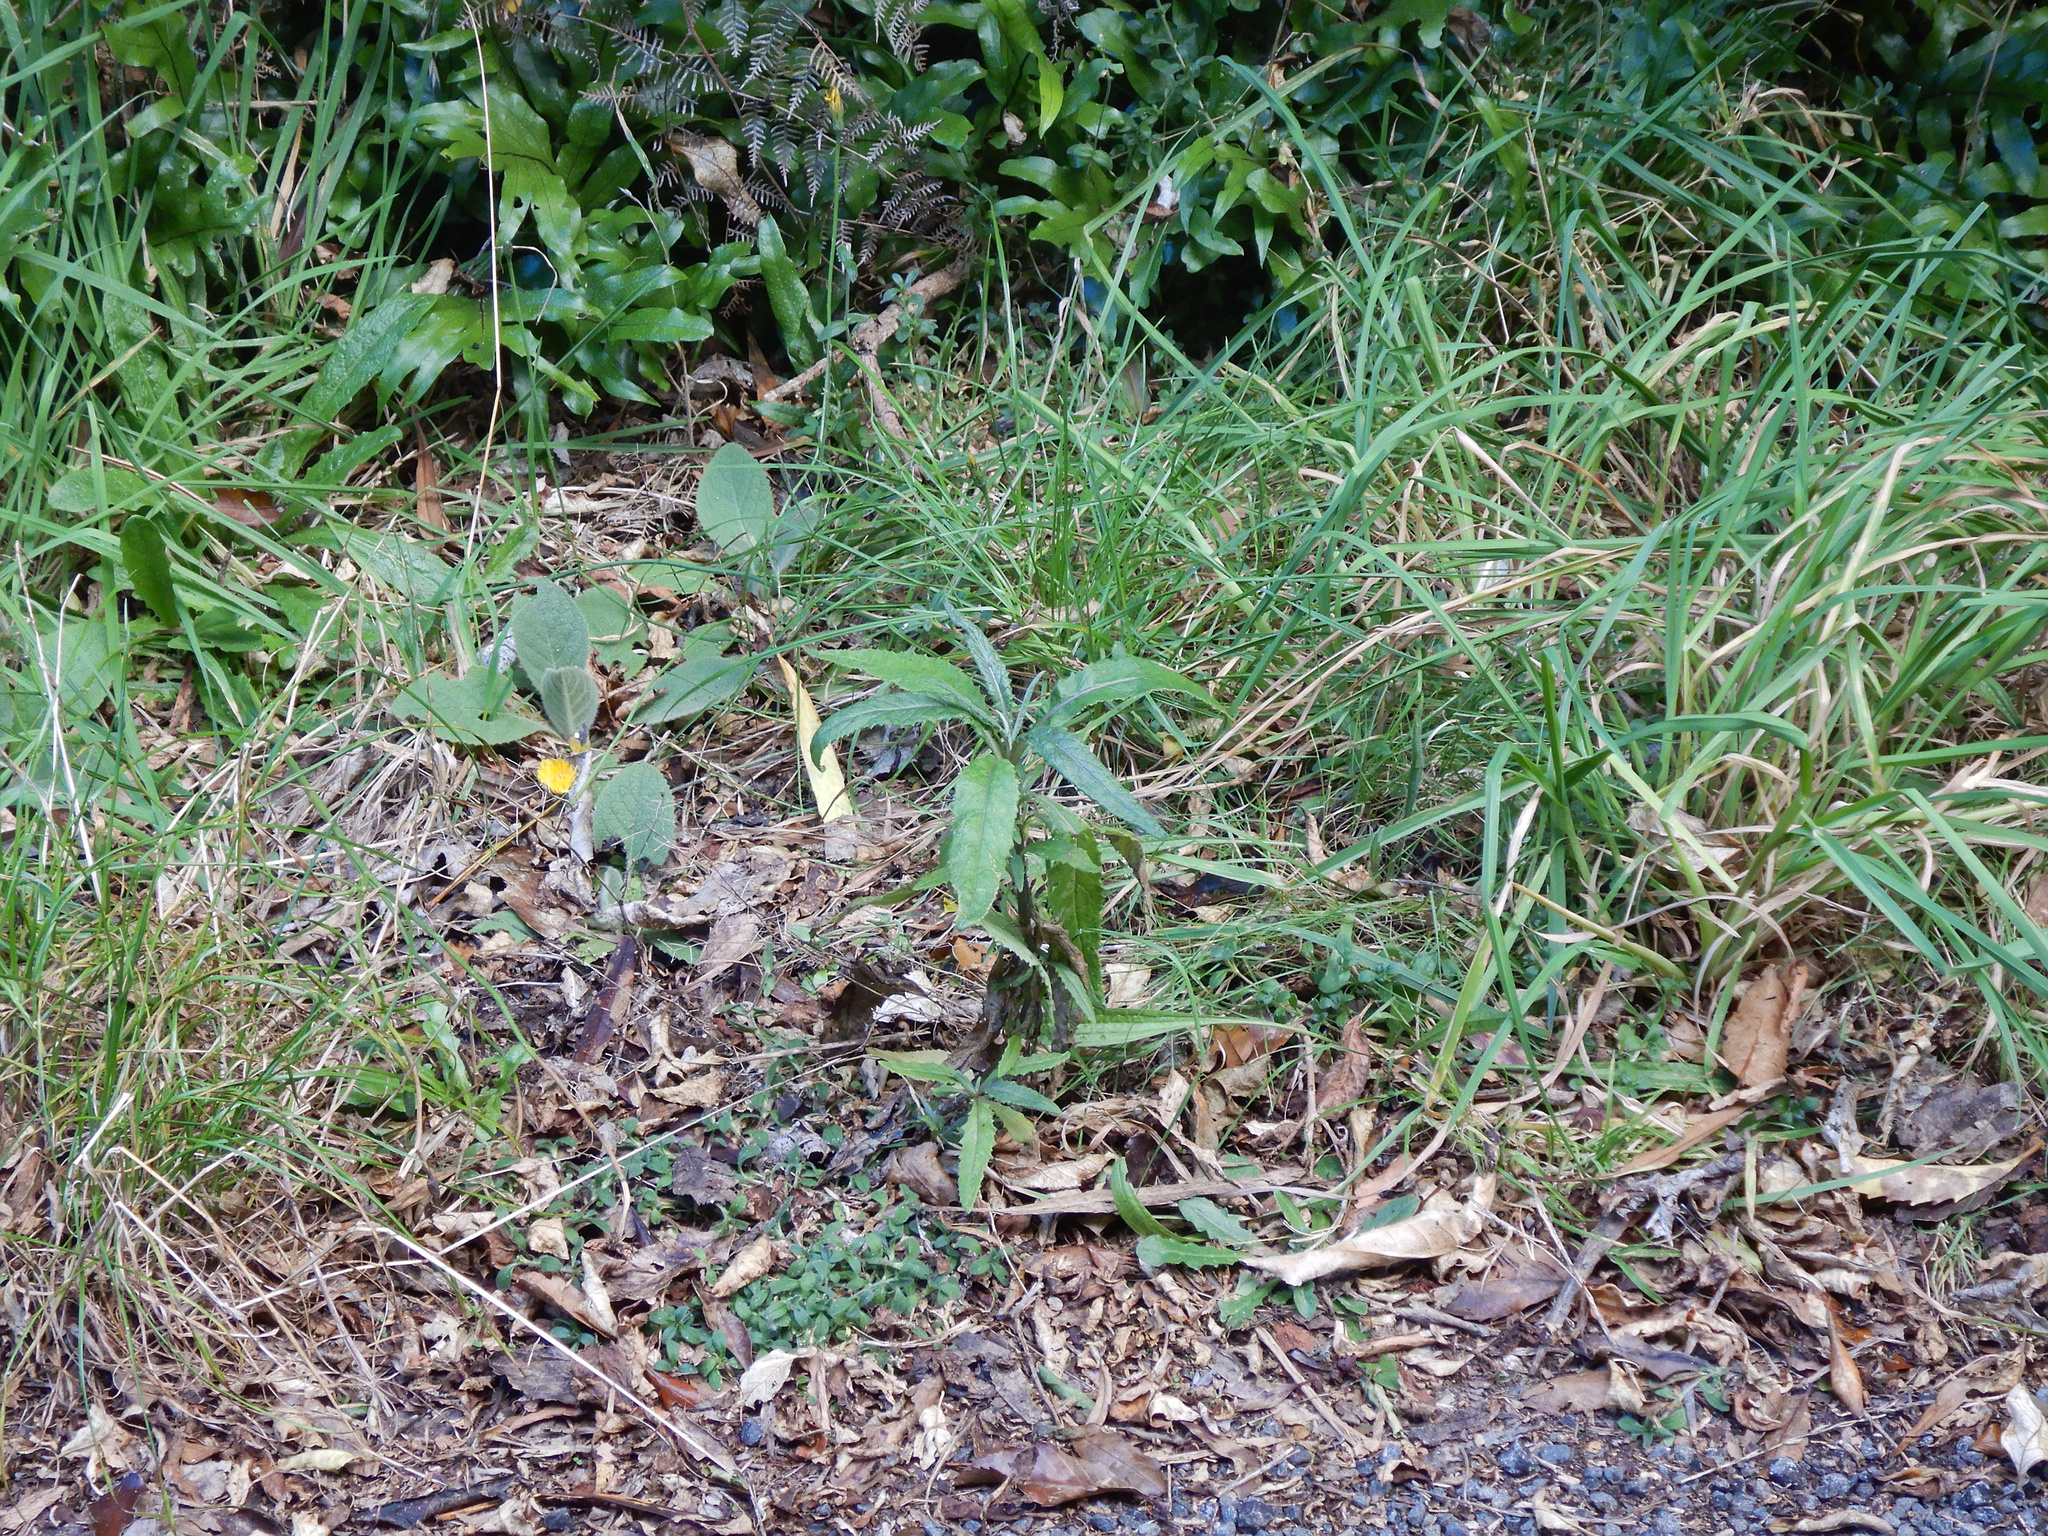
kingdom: Plantae
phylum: Tracheophyta
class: Magnoliopsida
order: Asterales
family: Asteraceae
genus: Senecio
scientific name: Senecio minimus
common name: Toothed fireweed
